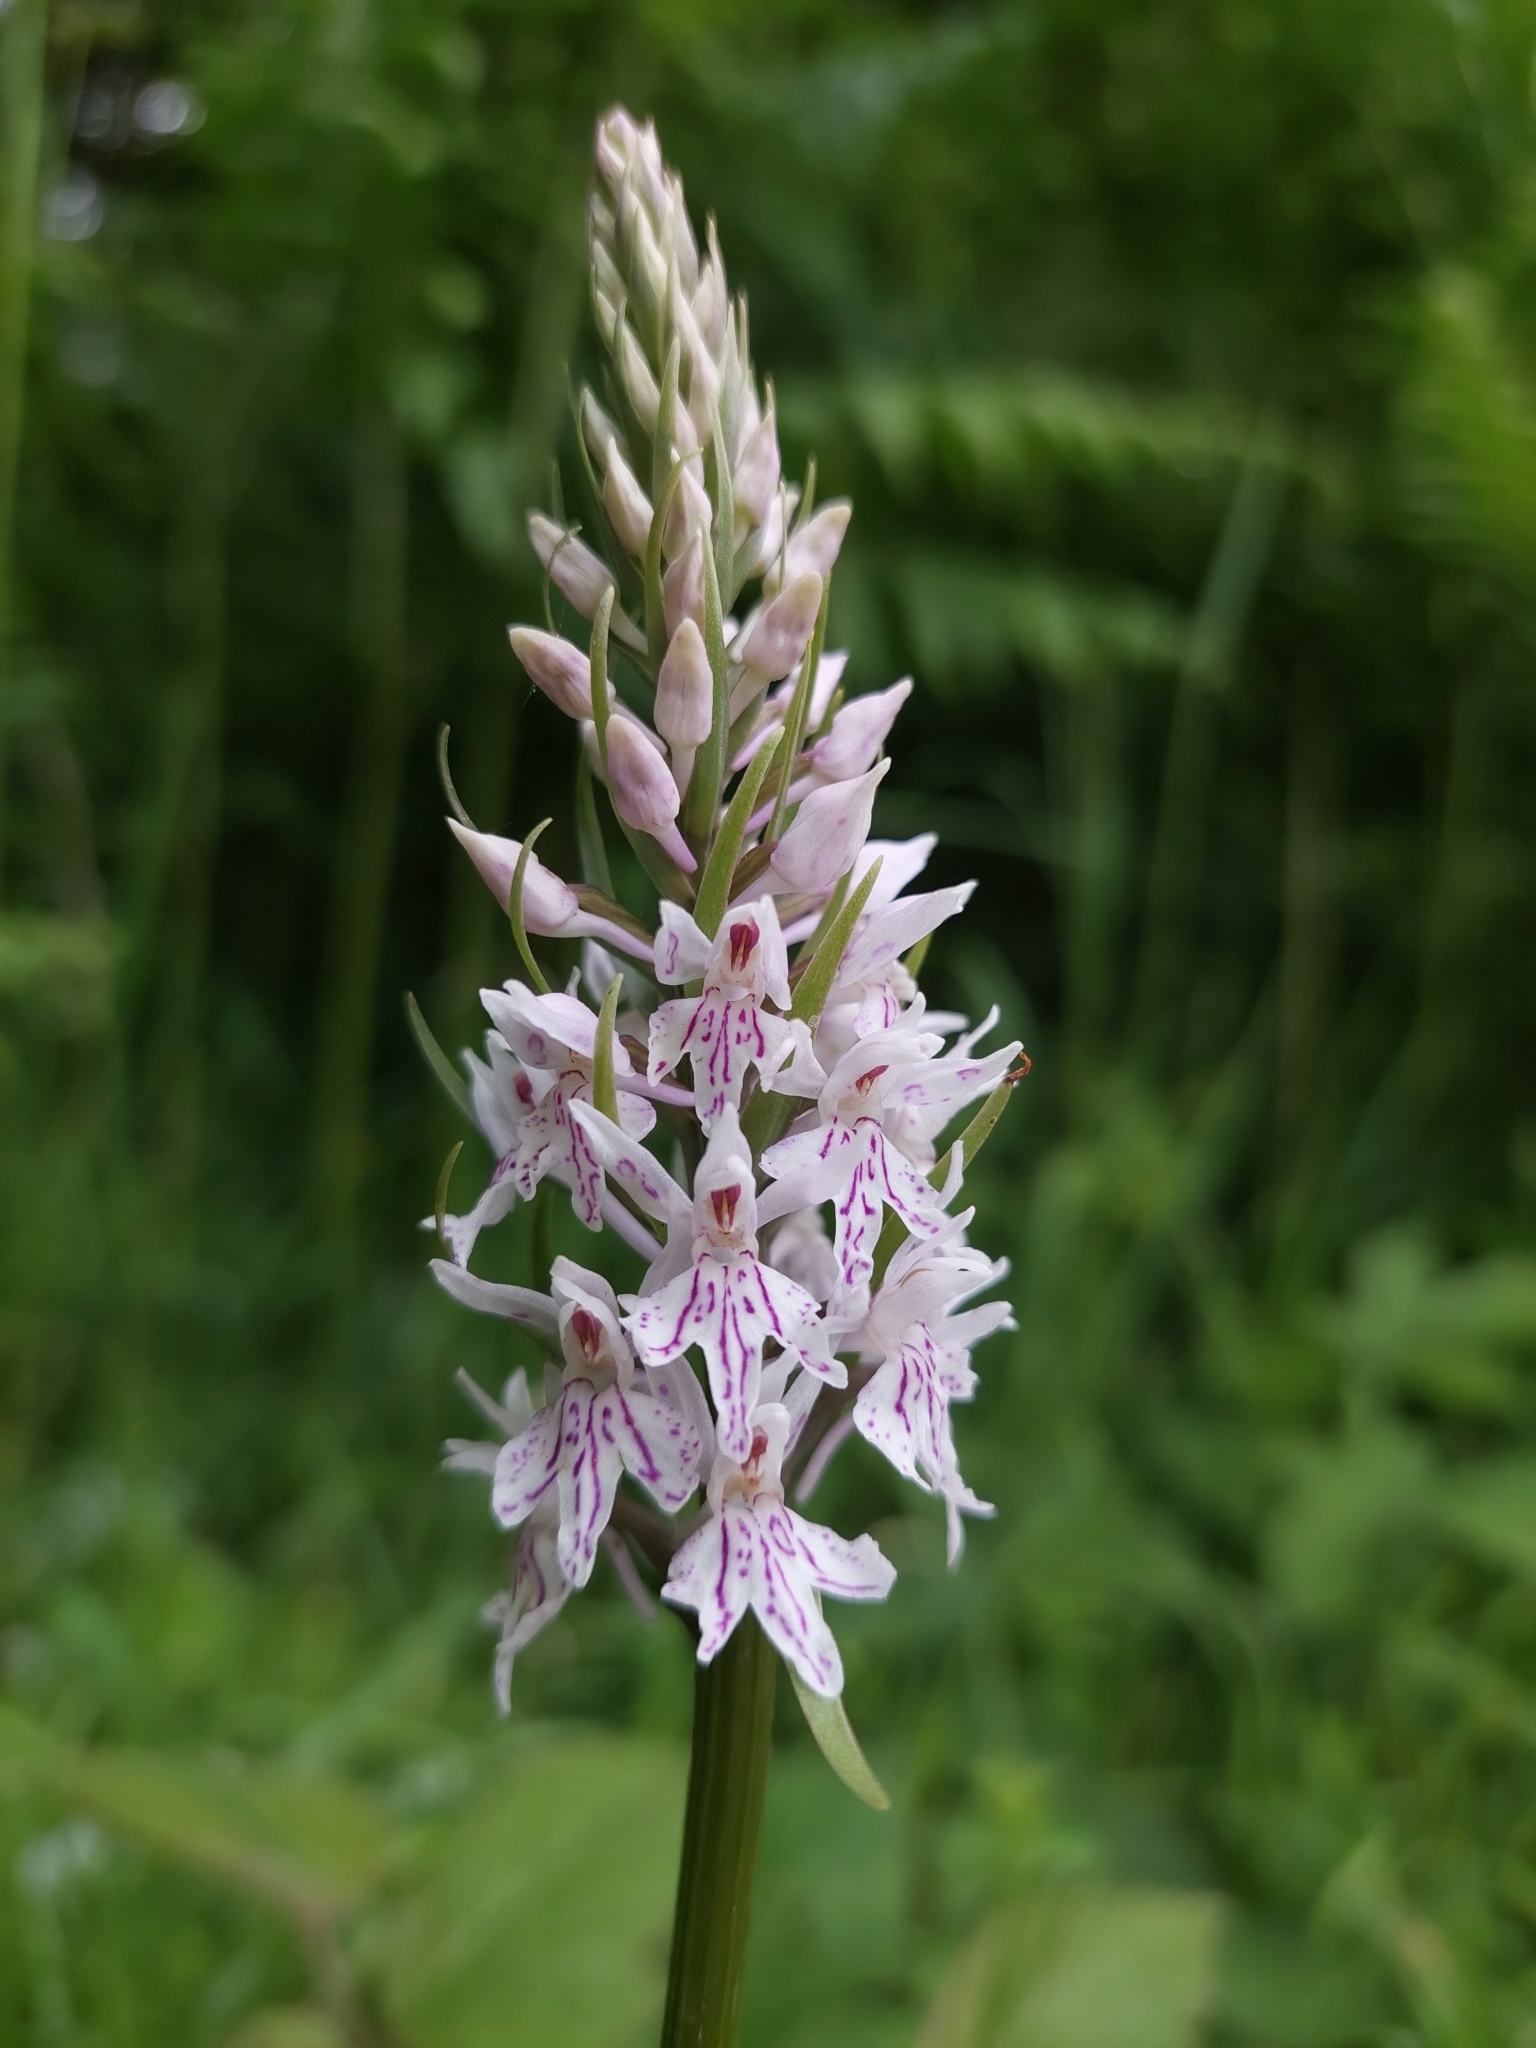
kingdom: Plantae
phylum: Tracheophyta
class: Liliopsida
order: Asparagales
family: Orchidaceae
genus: Dactylorhiza
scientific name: Dactylorhiza maculata
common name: Heath spotted-orchid
